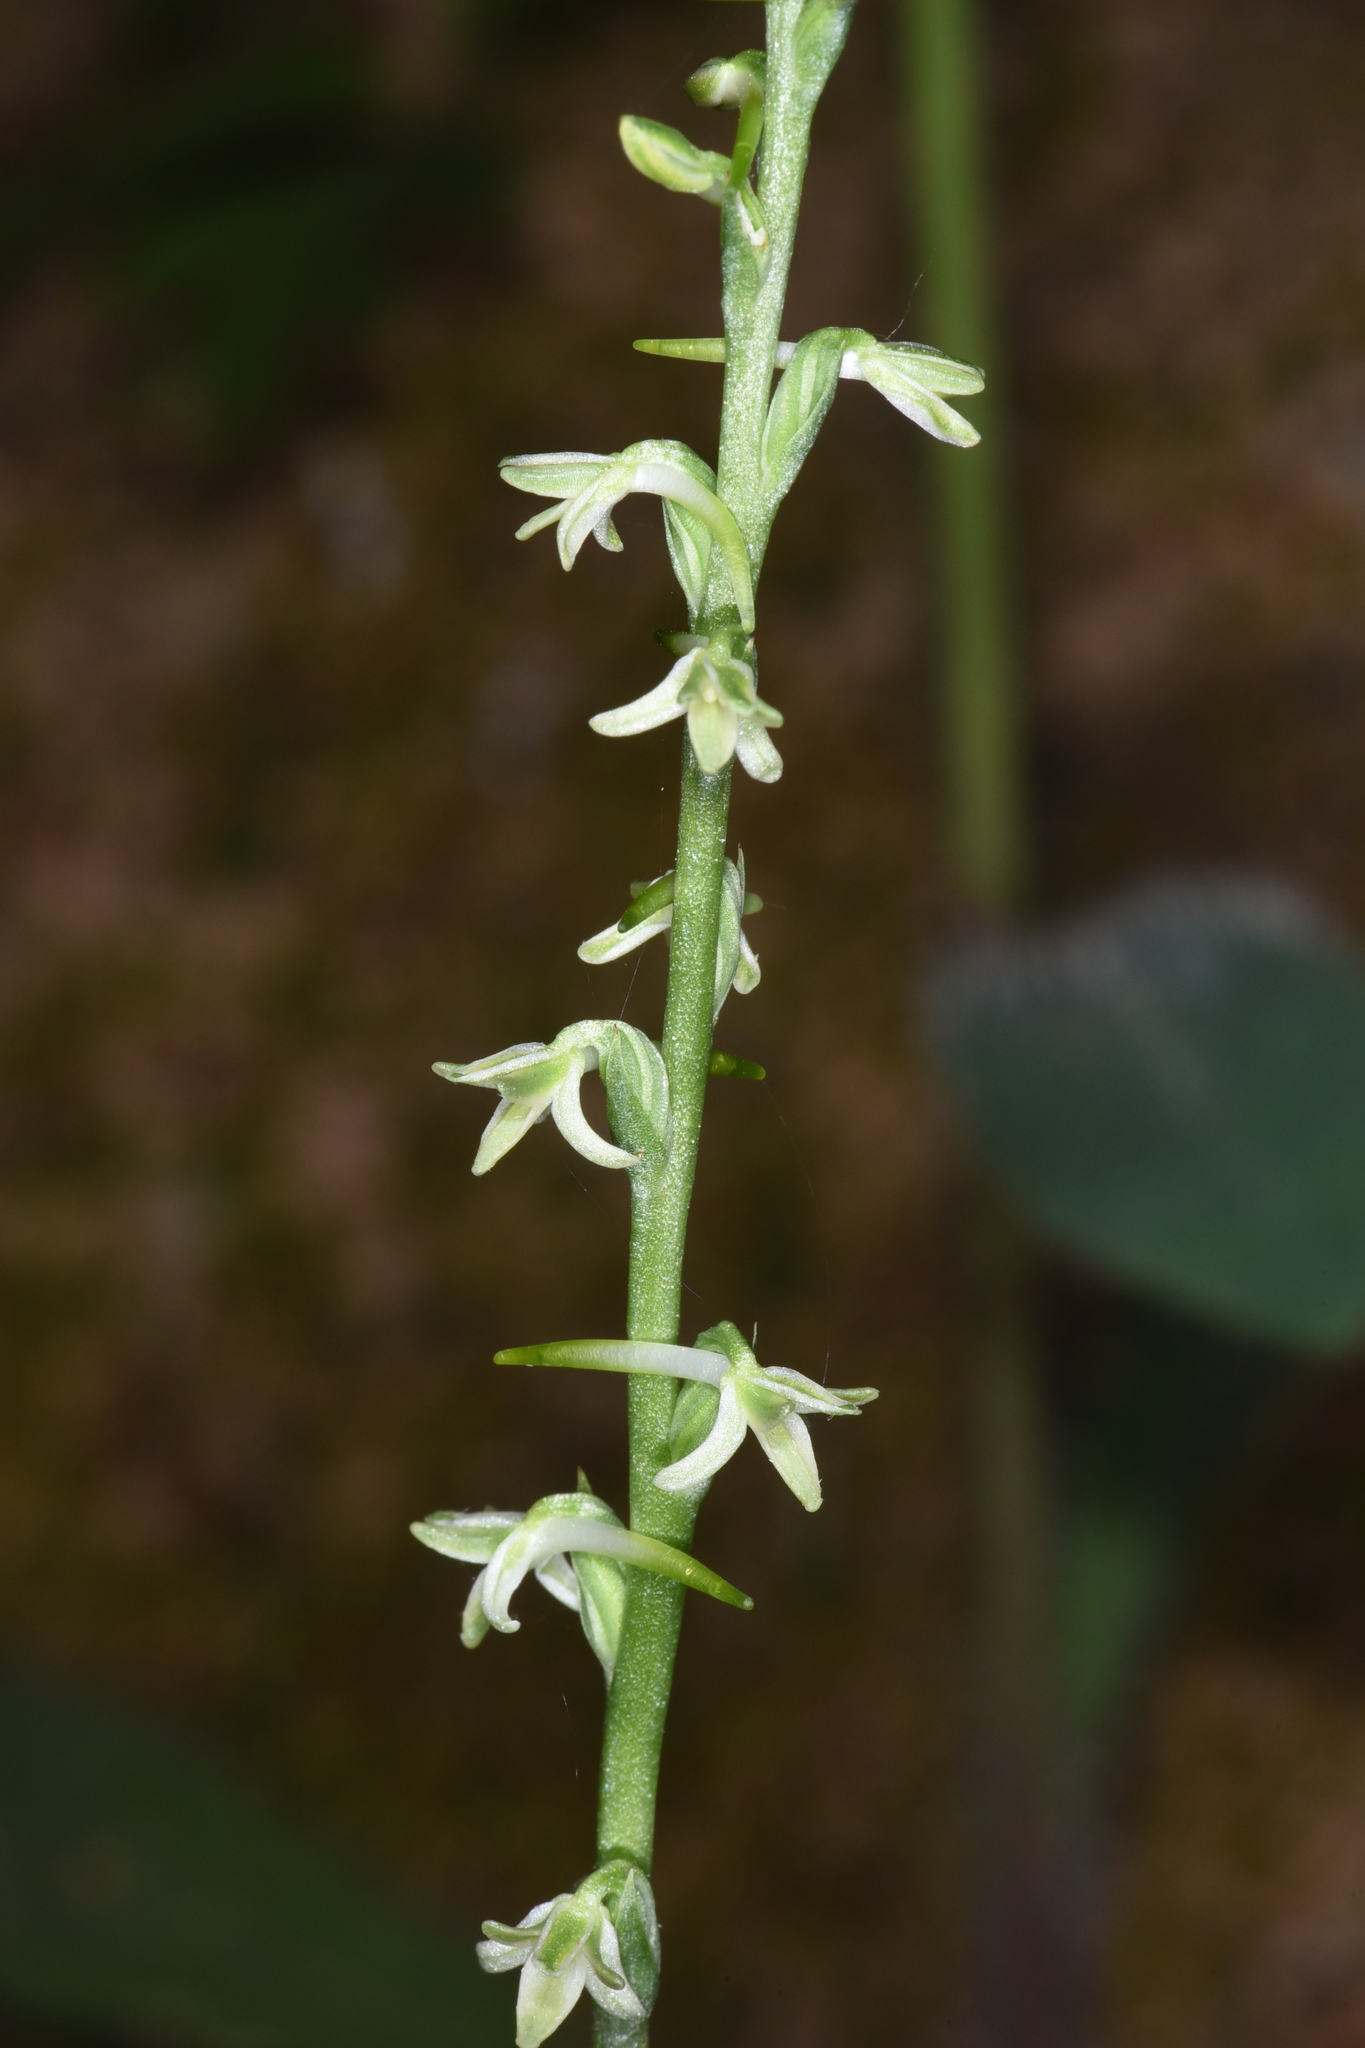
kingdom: Plantae
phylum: Tracheophyta
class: Liliopsida
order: Asparagales
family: Orchidaceae
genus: Platanthera
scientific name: Platanthera transversa
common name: Royal rein orchid
